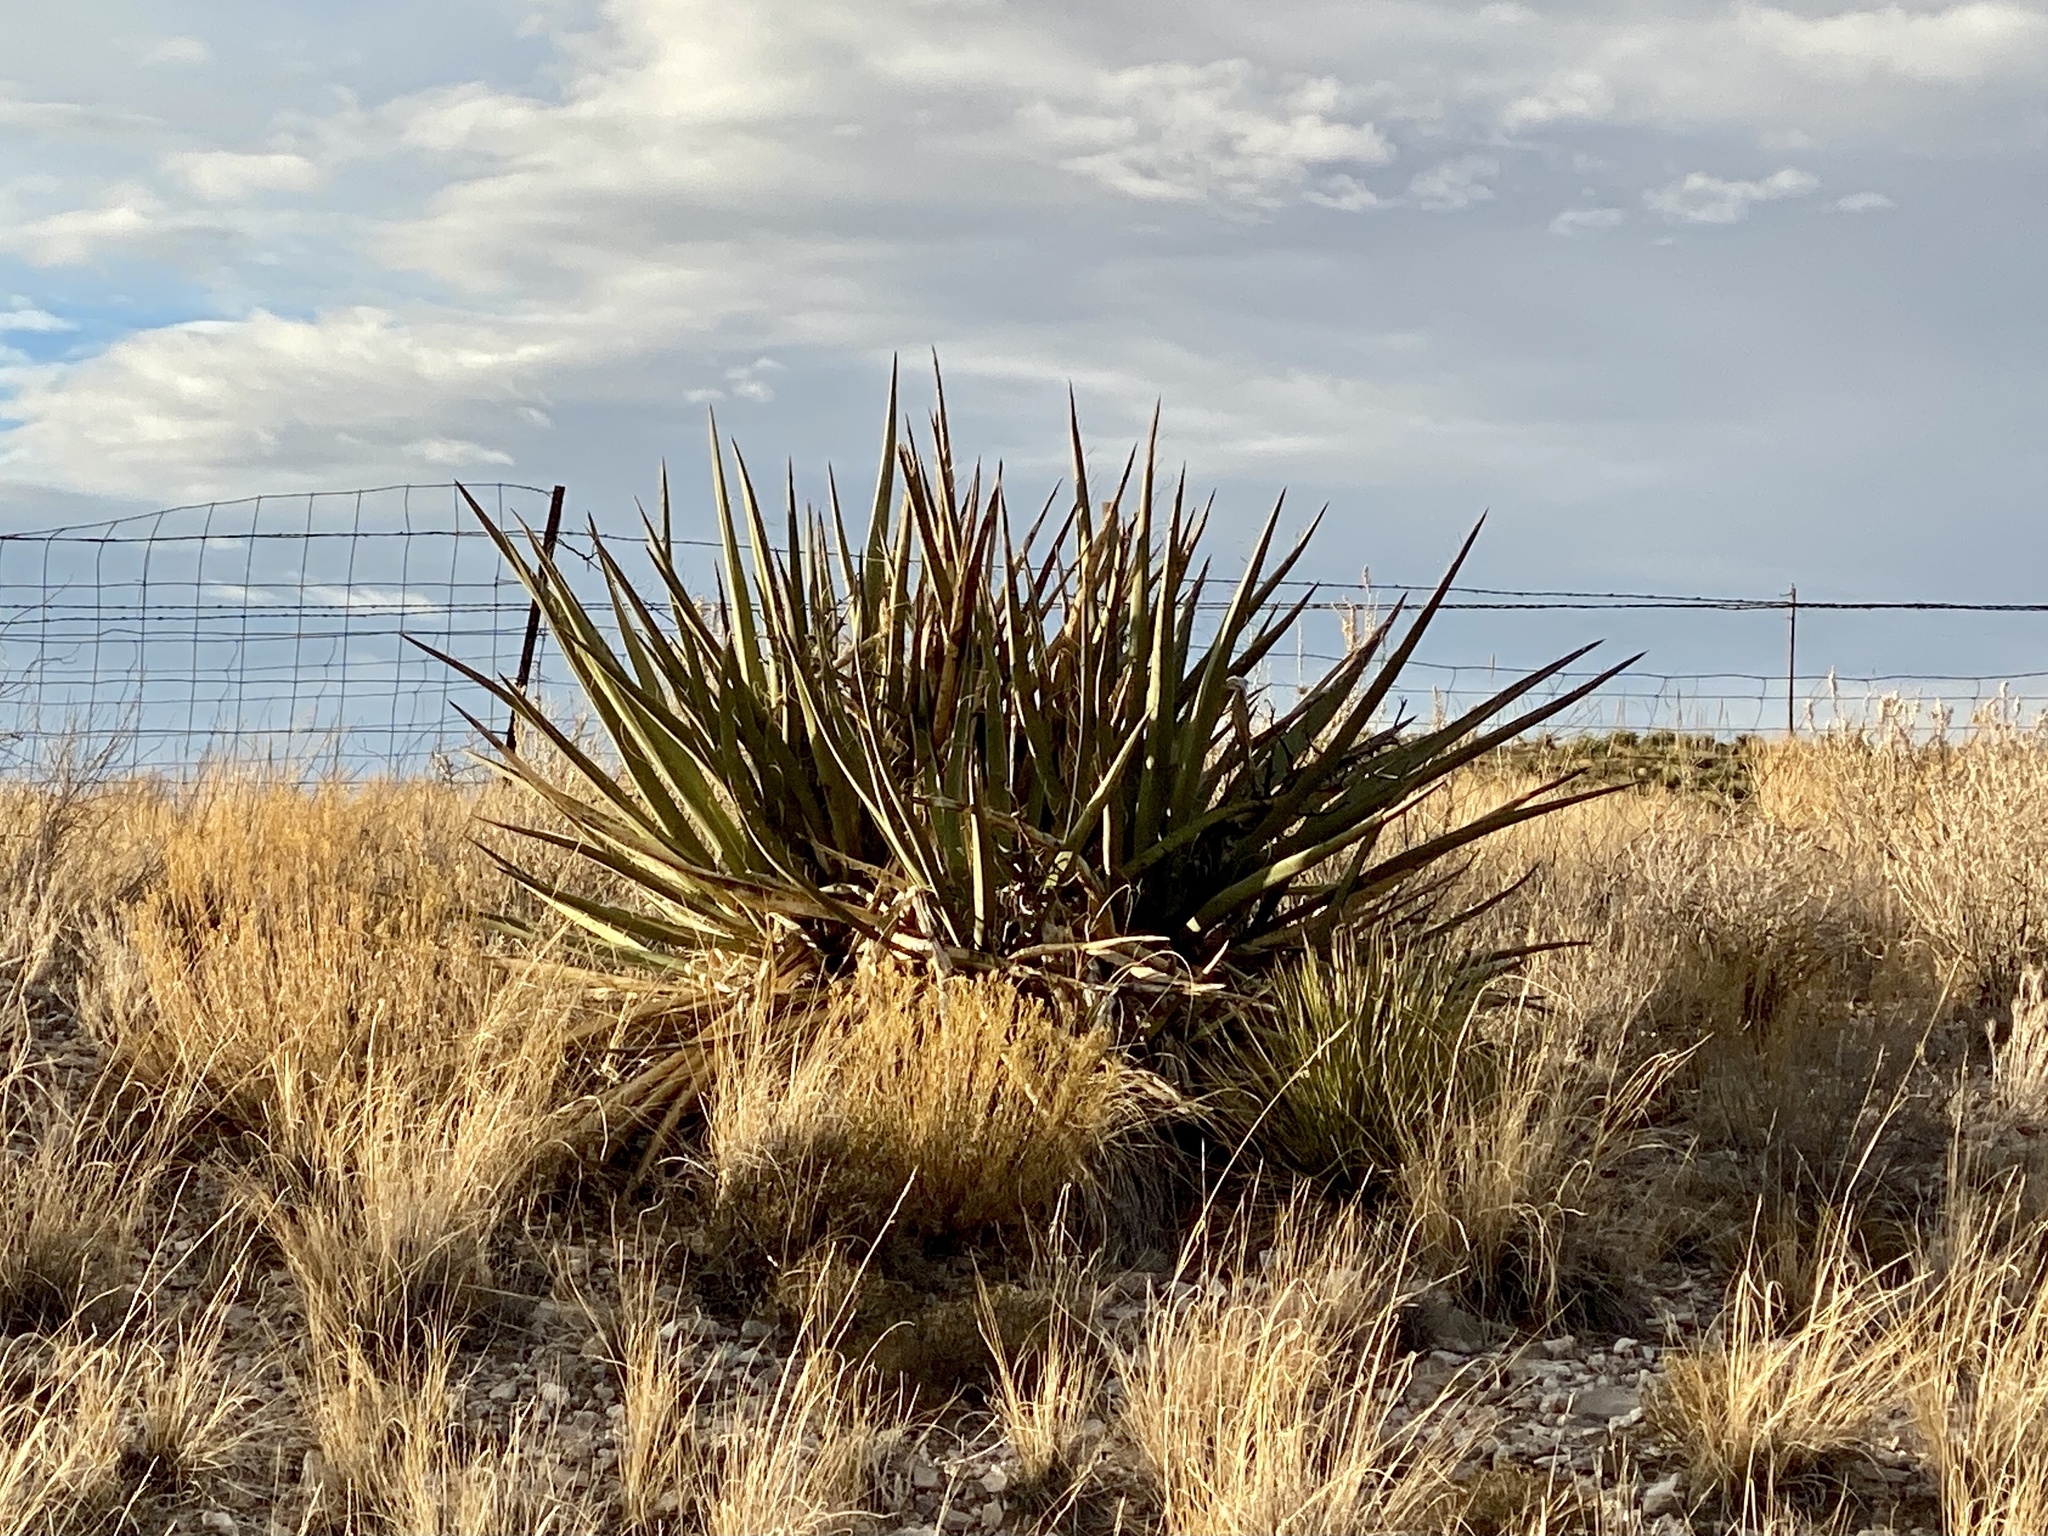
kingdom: Plantae
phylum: Tracheophyta
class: Liliopsida
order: Asparagales
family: Asparagaceae
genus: Yucca
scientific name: Yucca baccata
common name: Banana yucca
